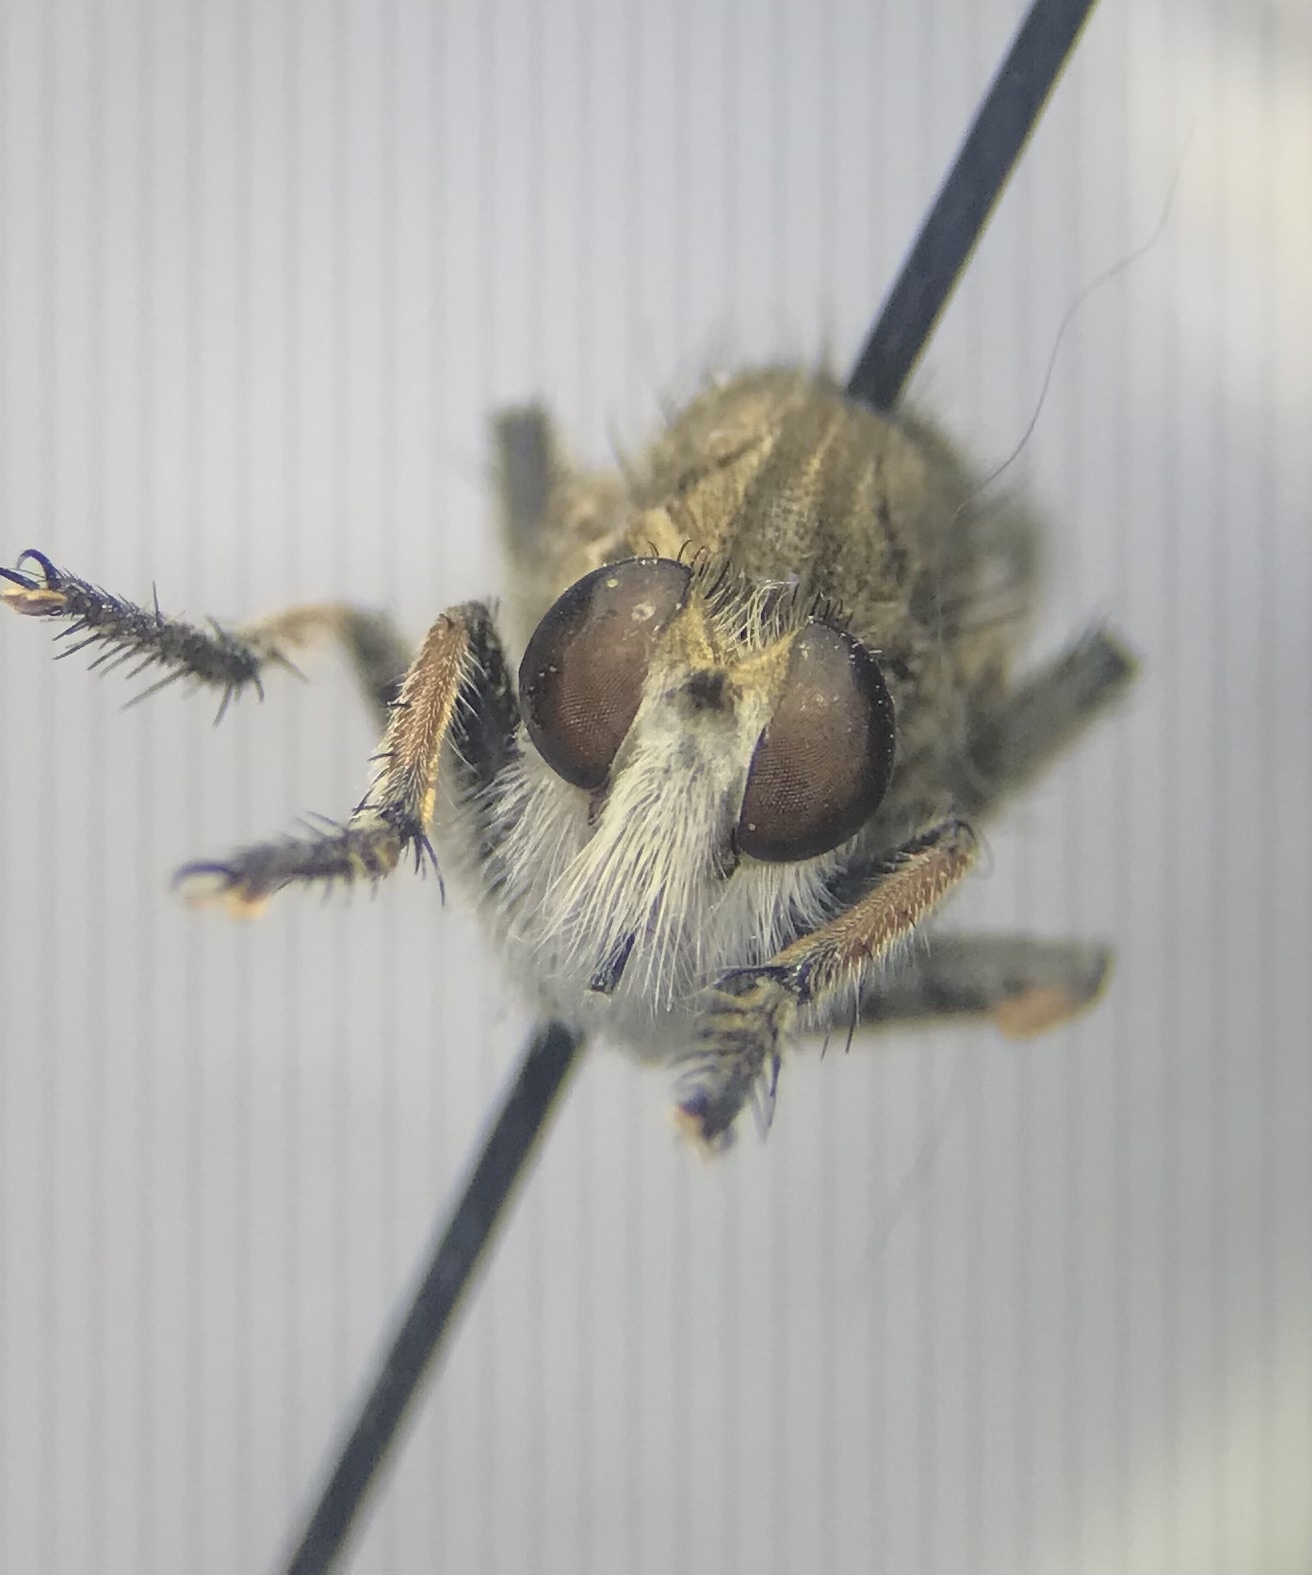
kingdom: Animalia
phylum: Arthropoda
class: Insecta
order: Diptera
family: Asilidae
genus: Efferia
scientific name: Efferia albibarbis
